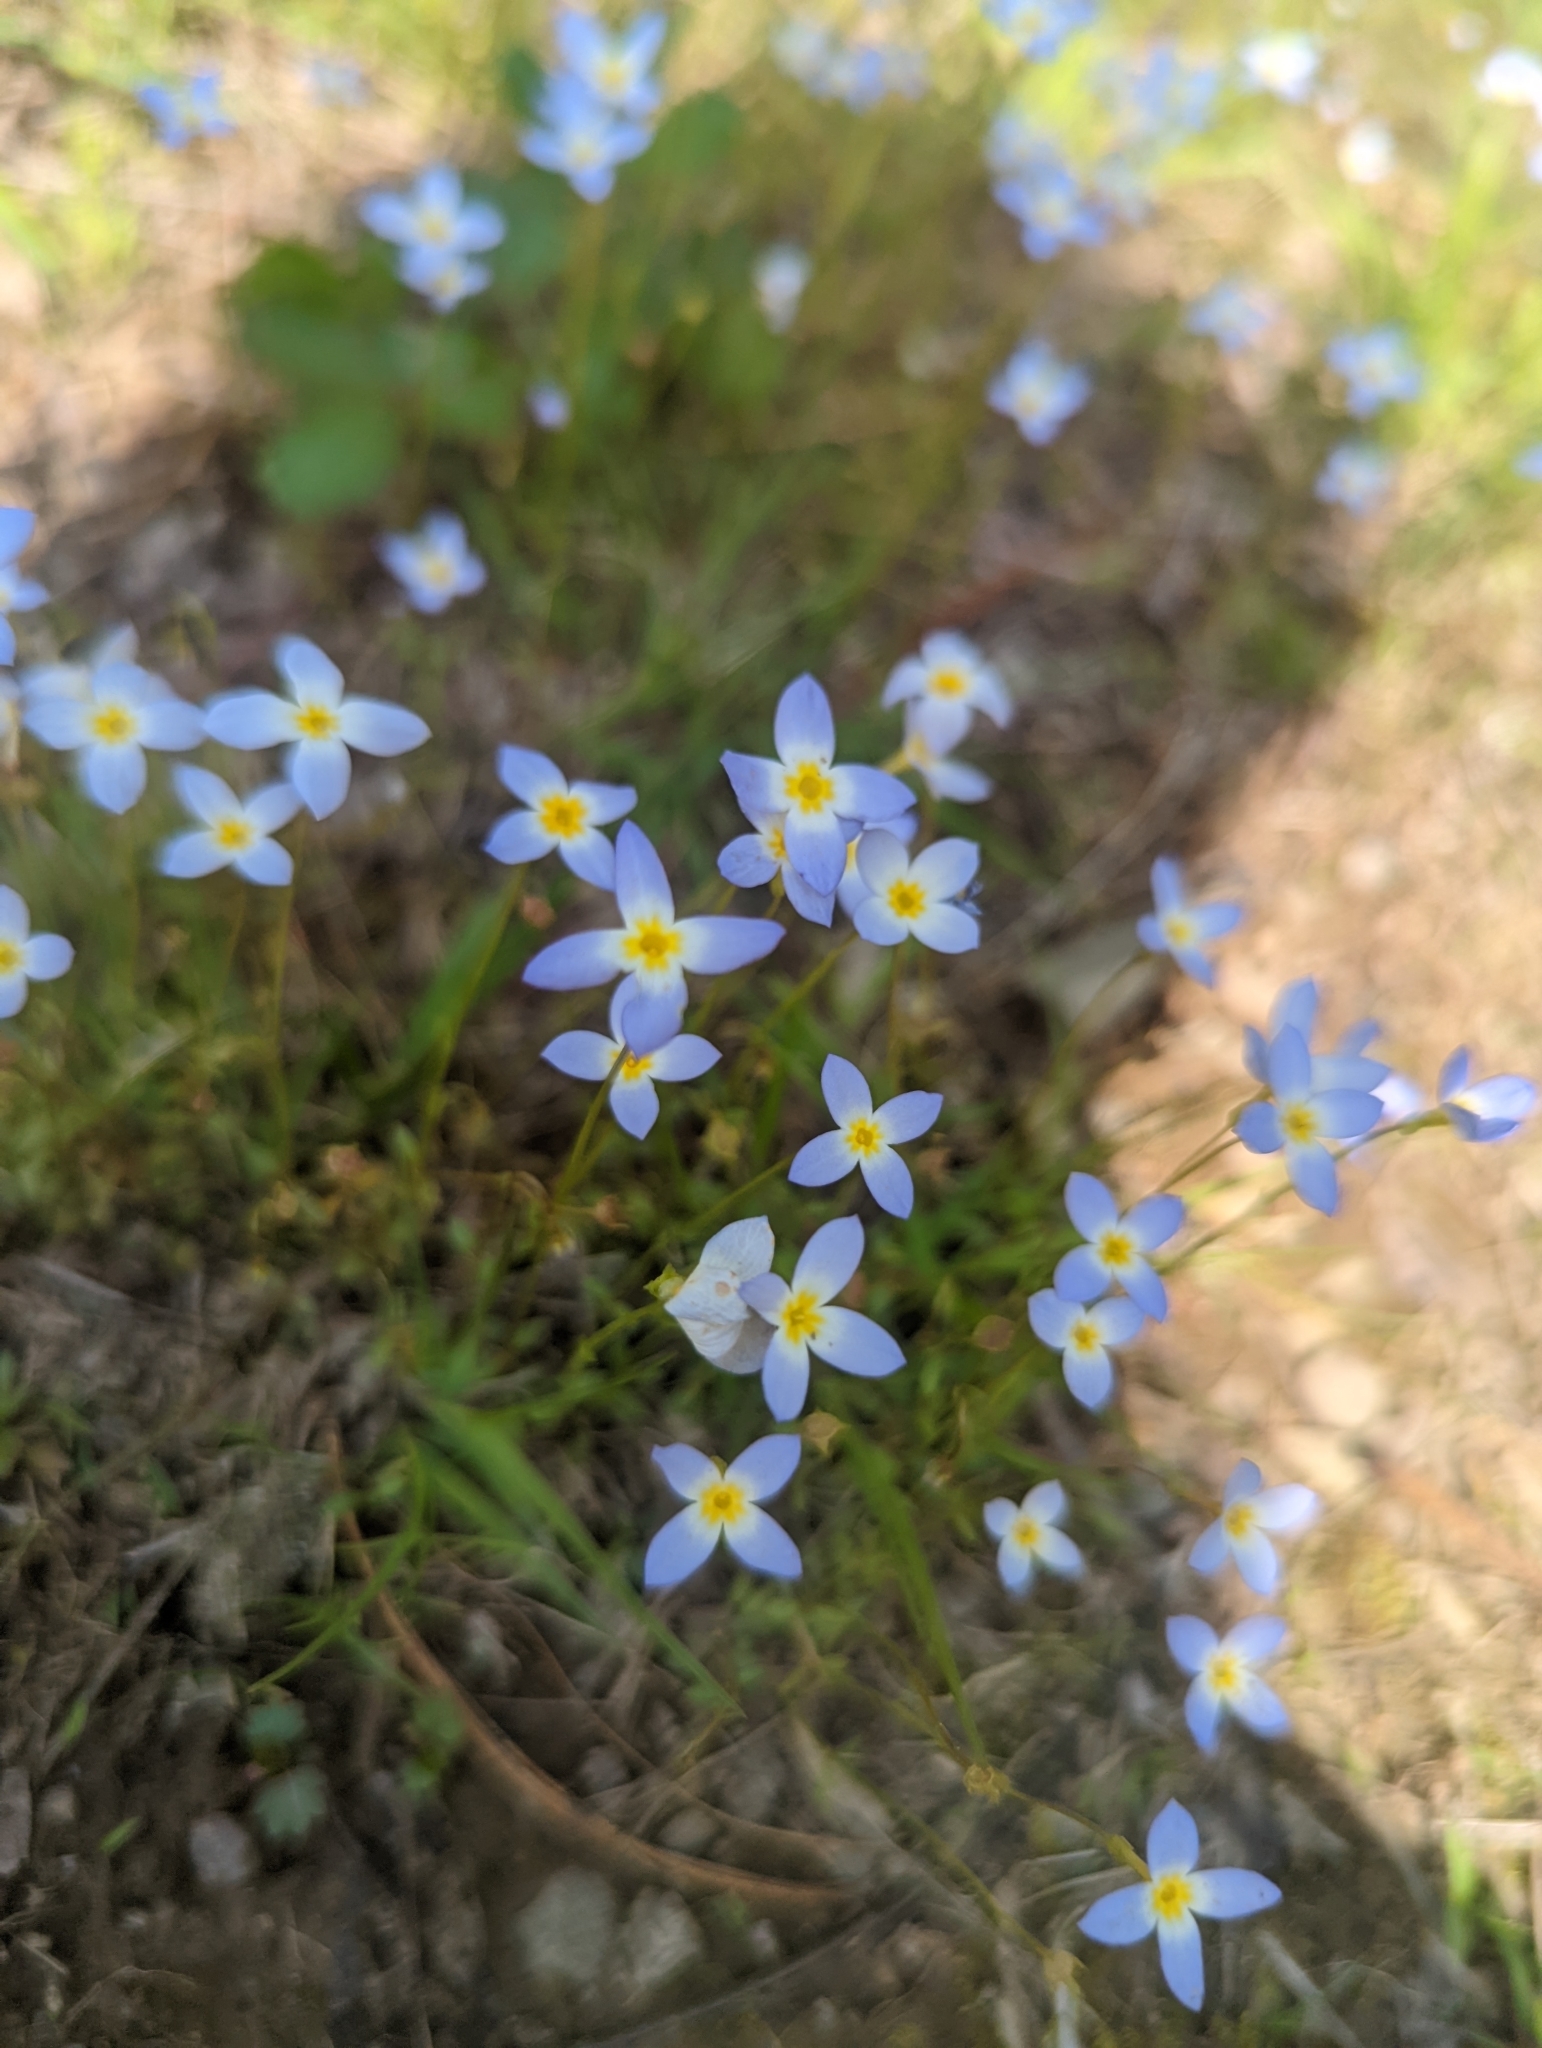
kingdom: Plantae
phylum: Tracheophyta
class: Magnoliopsida
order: Gentianales
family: Rubiaceae
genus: Houstonia
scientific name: Houstonia caerulea
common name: Bluets
